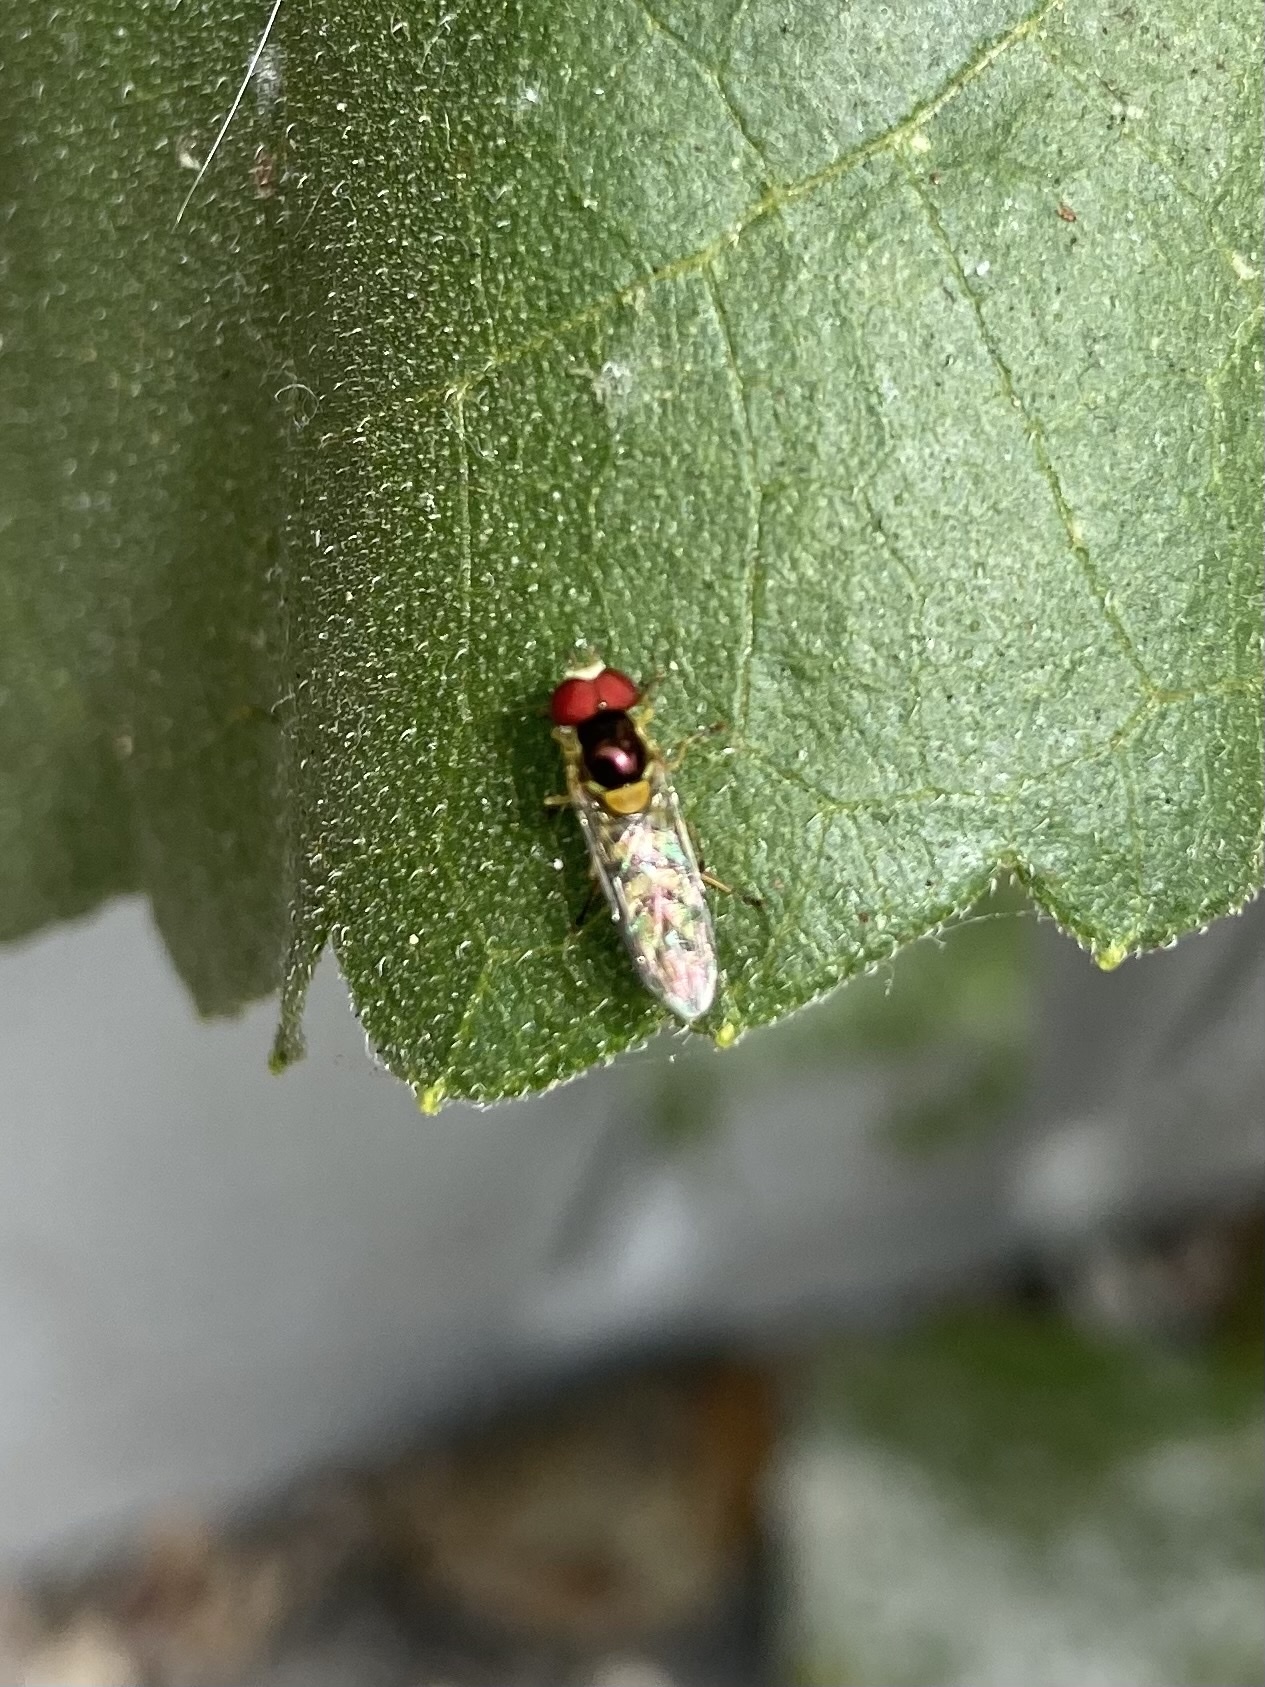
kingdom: Animalia
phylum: Arthropoda
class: Insecta
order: Diptera
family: Syrphidae
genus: Allograpta
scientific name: Allograpta obliqua
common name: Common oblique syrphid
